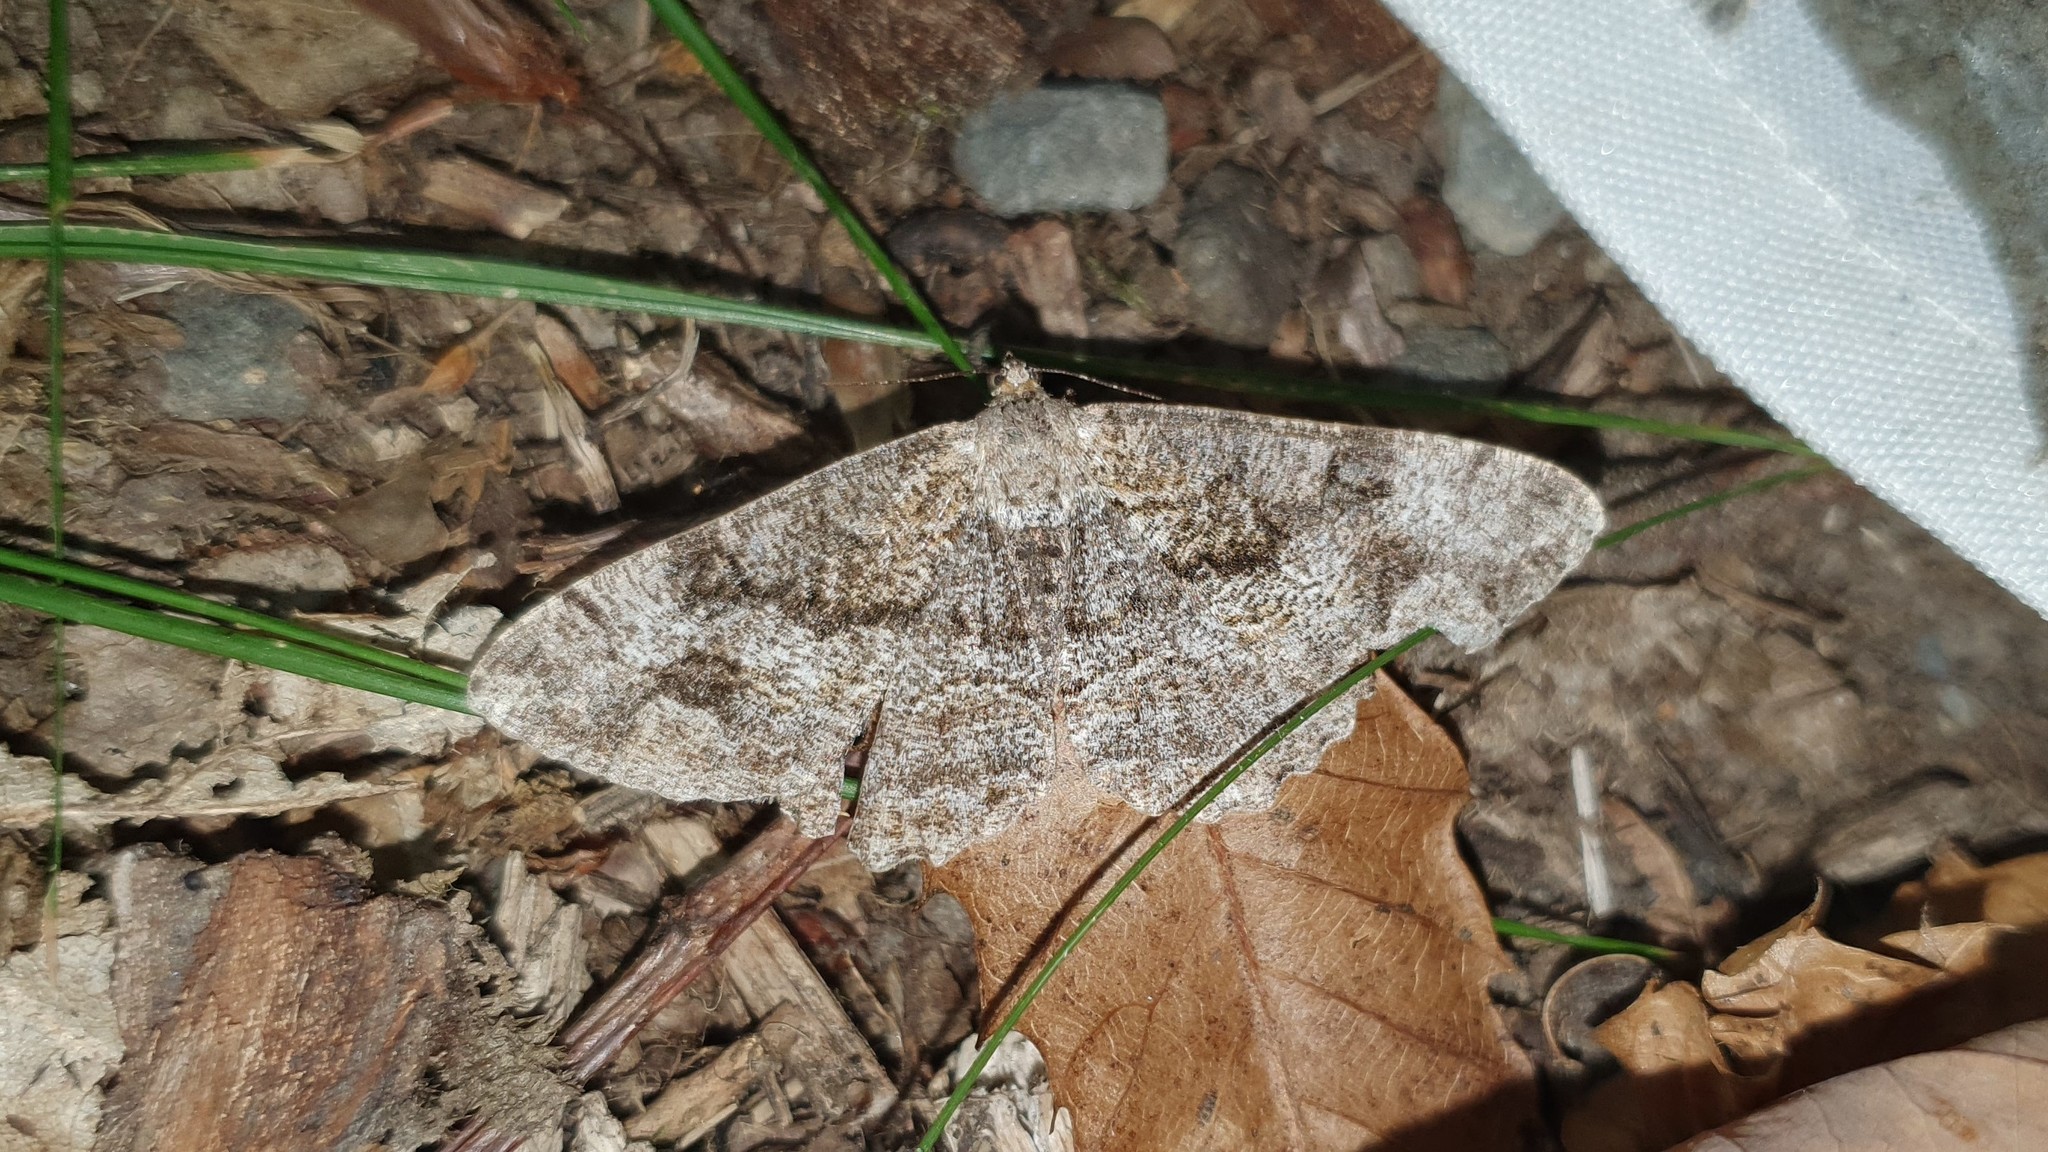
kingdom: Animalia
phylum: Arthropoda
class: Insecta
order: Lepidoptera
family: Geometridae
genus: Alcis
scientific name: Alcis repandata
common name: Mottled beauty
